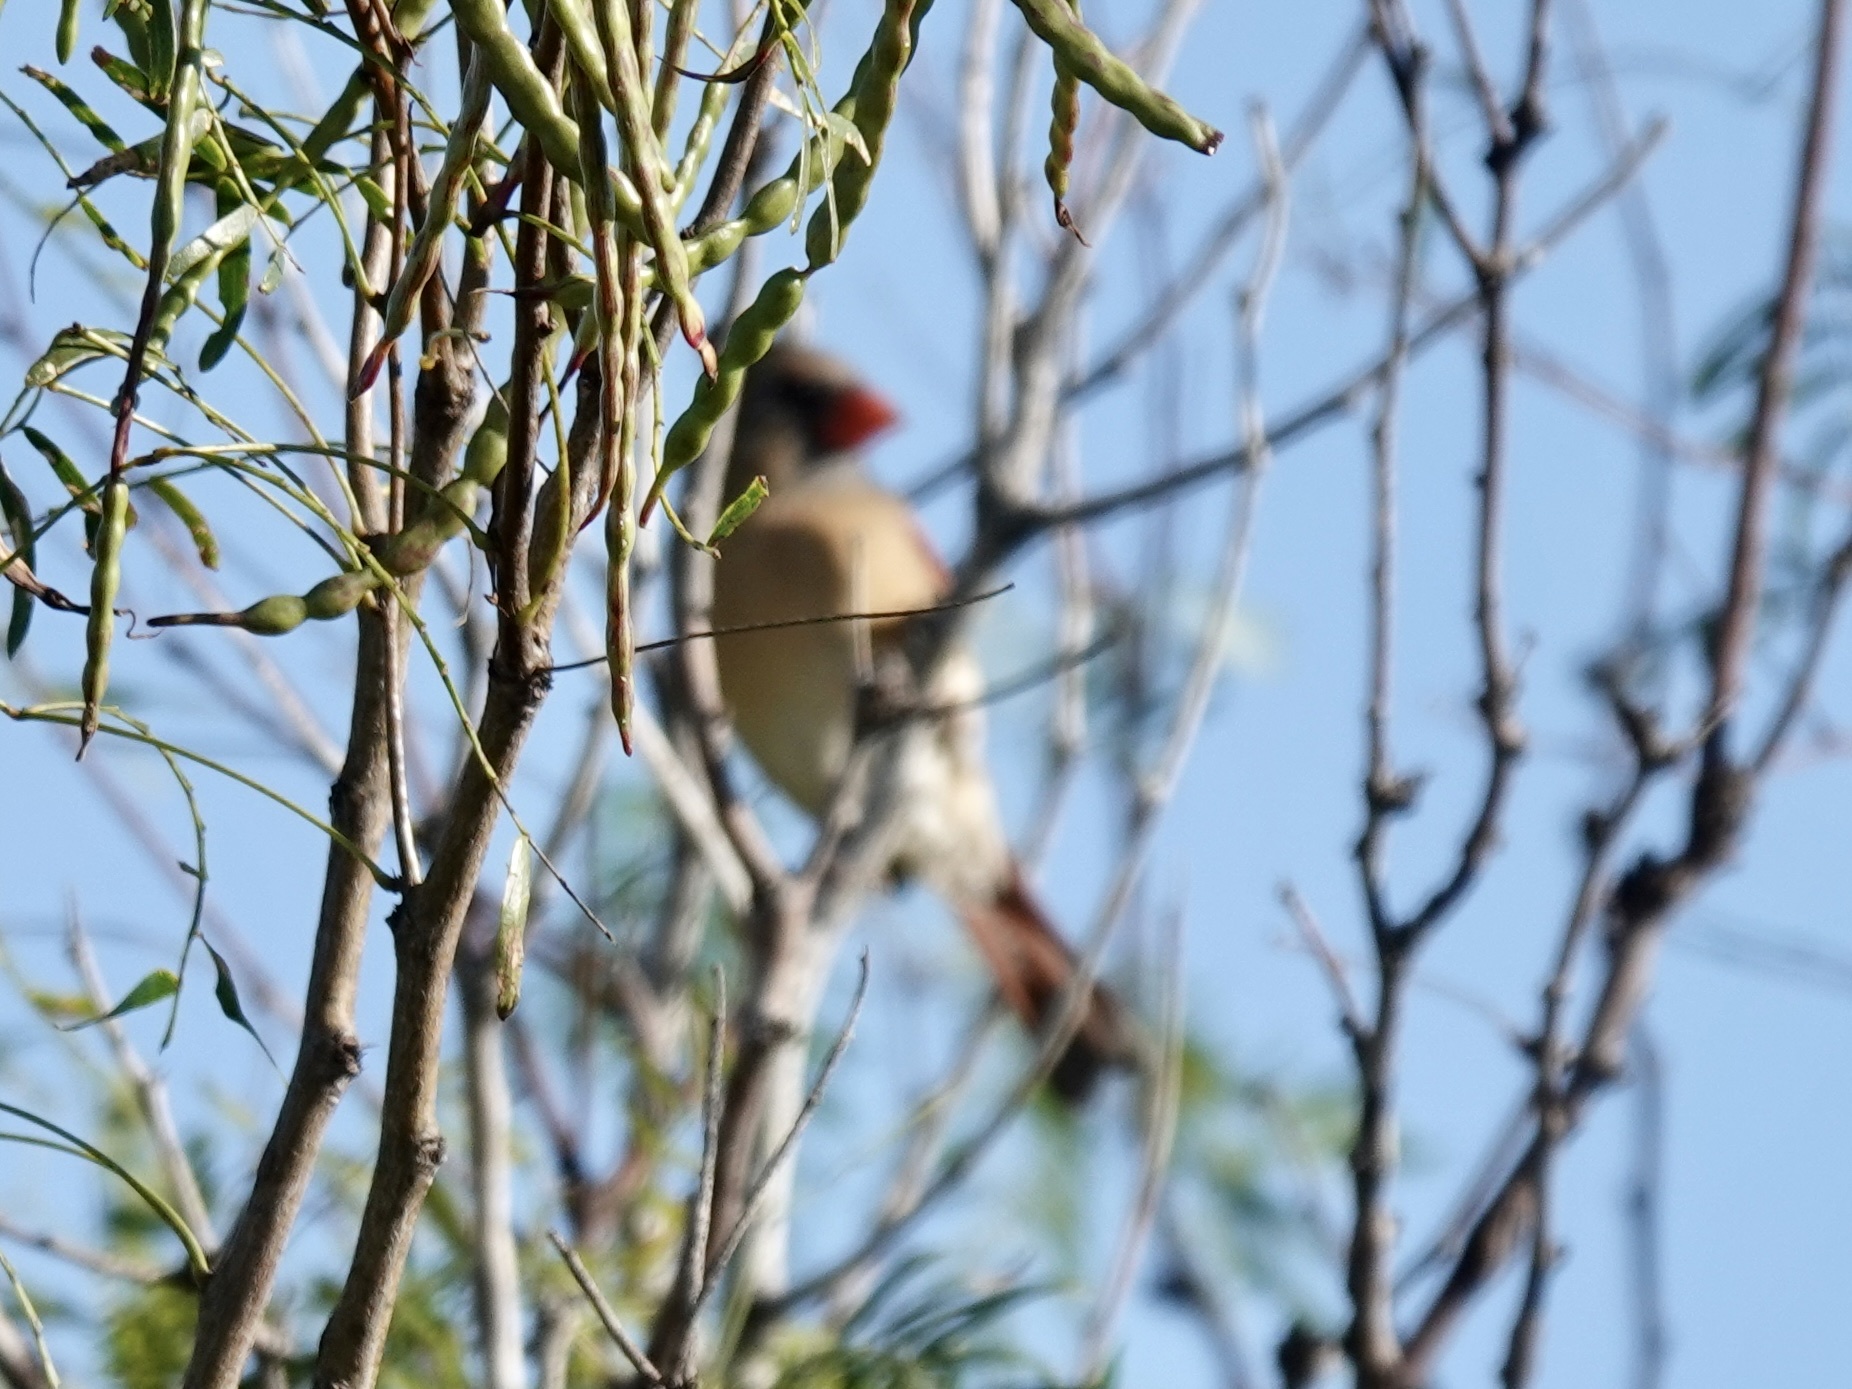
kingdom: Animalia
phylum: Chordata
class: Aves
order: Passeriformes
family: Cardinalidae
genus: Cardinalis
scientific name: Cardinalis cardinalis
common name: Northern cardinal
